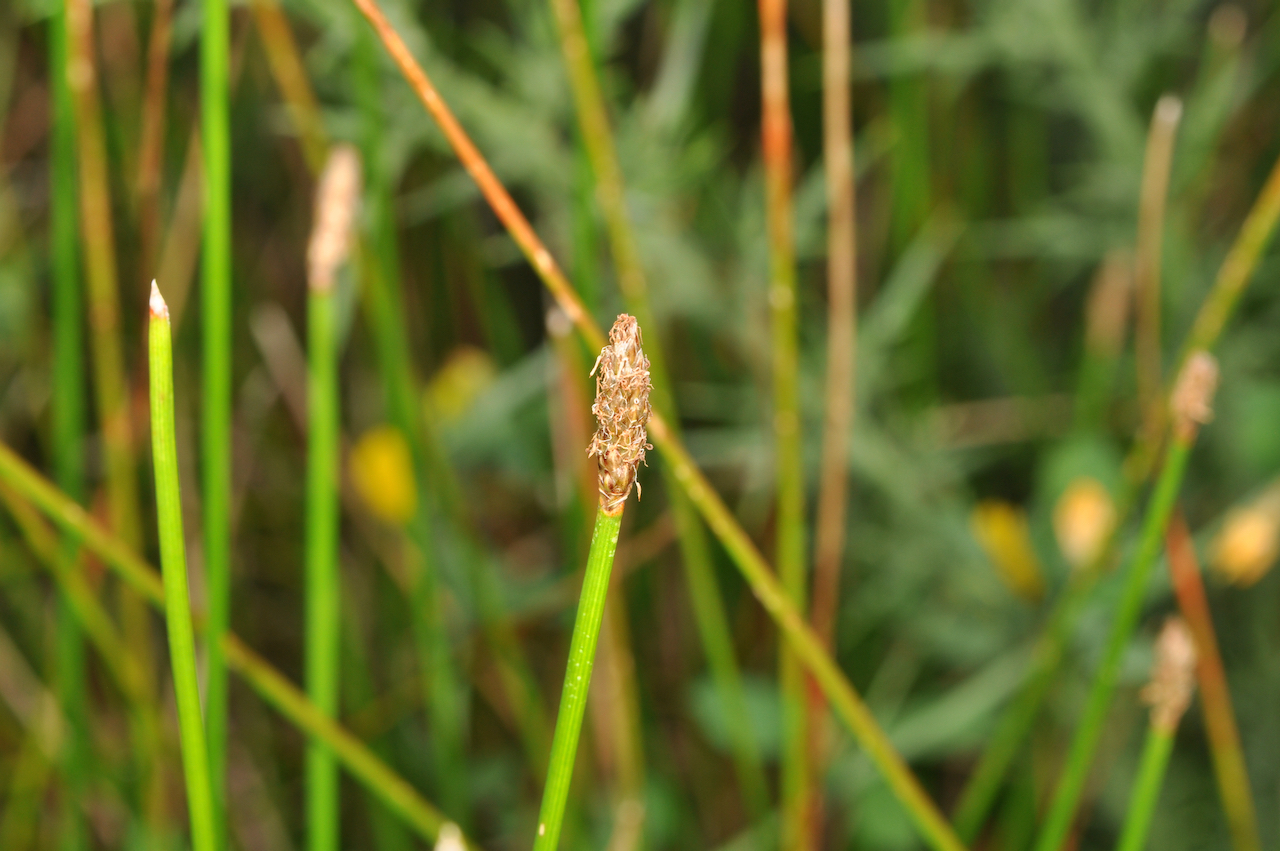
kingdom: Plantae
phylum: Tracheophyta
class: Liliopsida
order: Poales
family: Cyperaceae
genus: Eleocharis
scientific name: Eleocharis acuta
